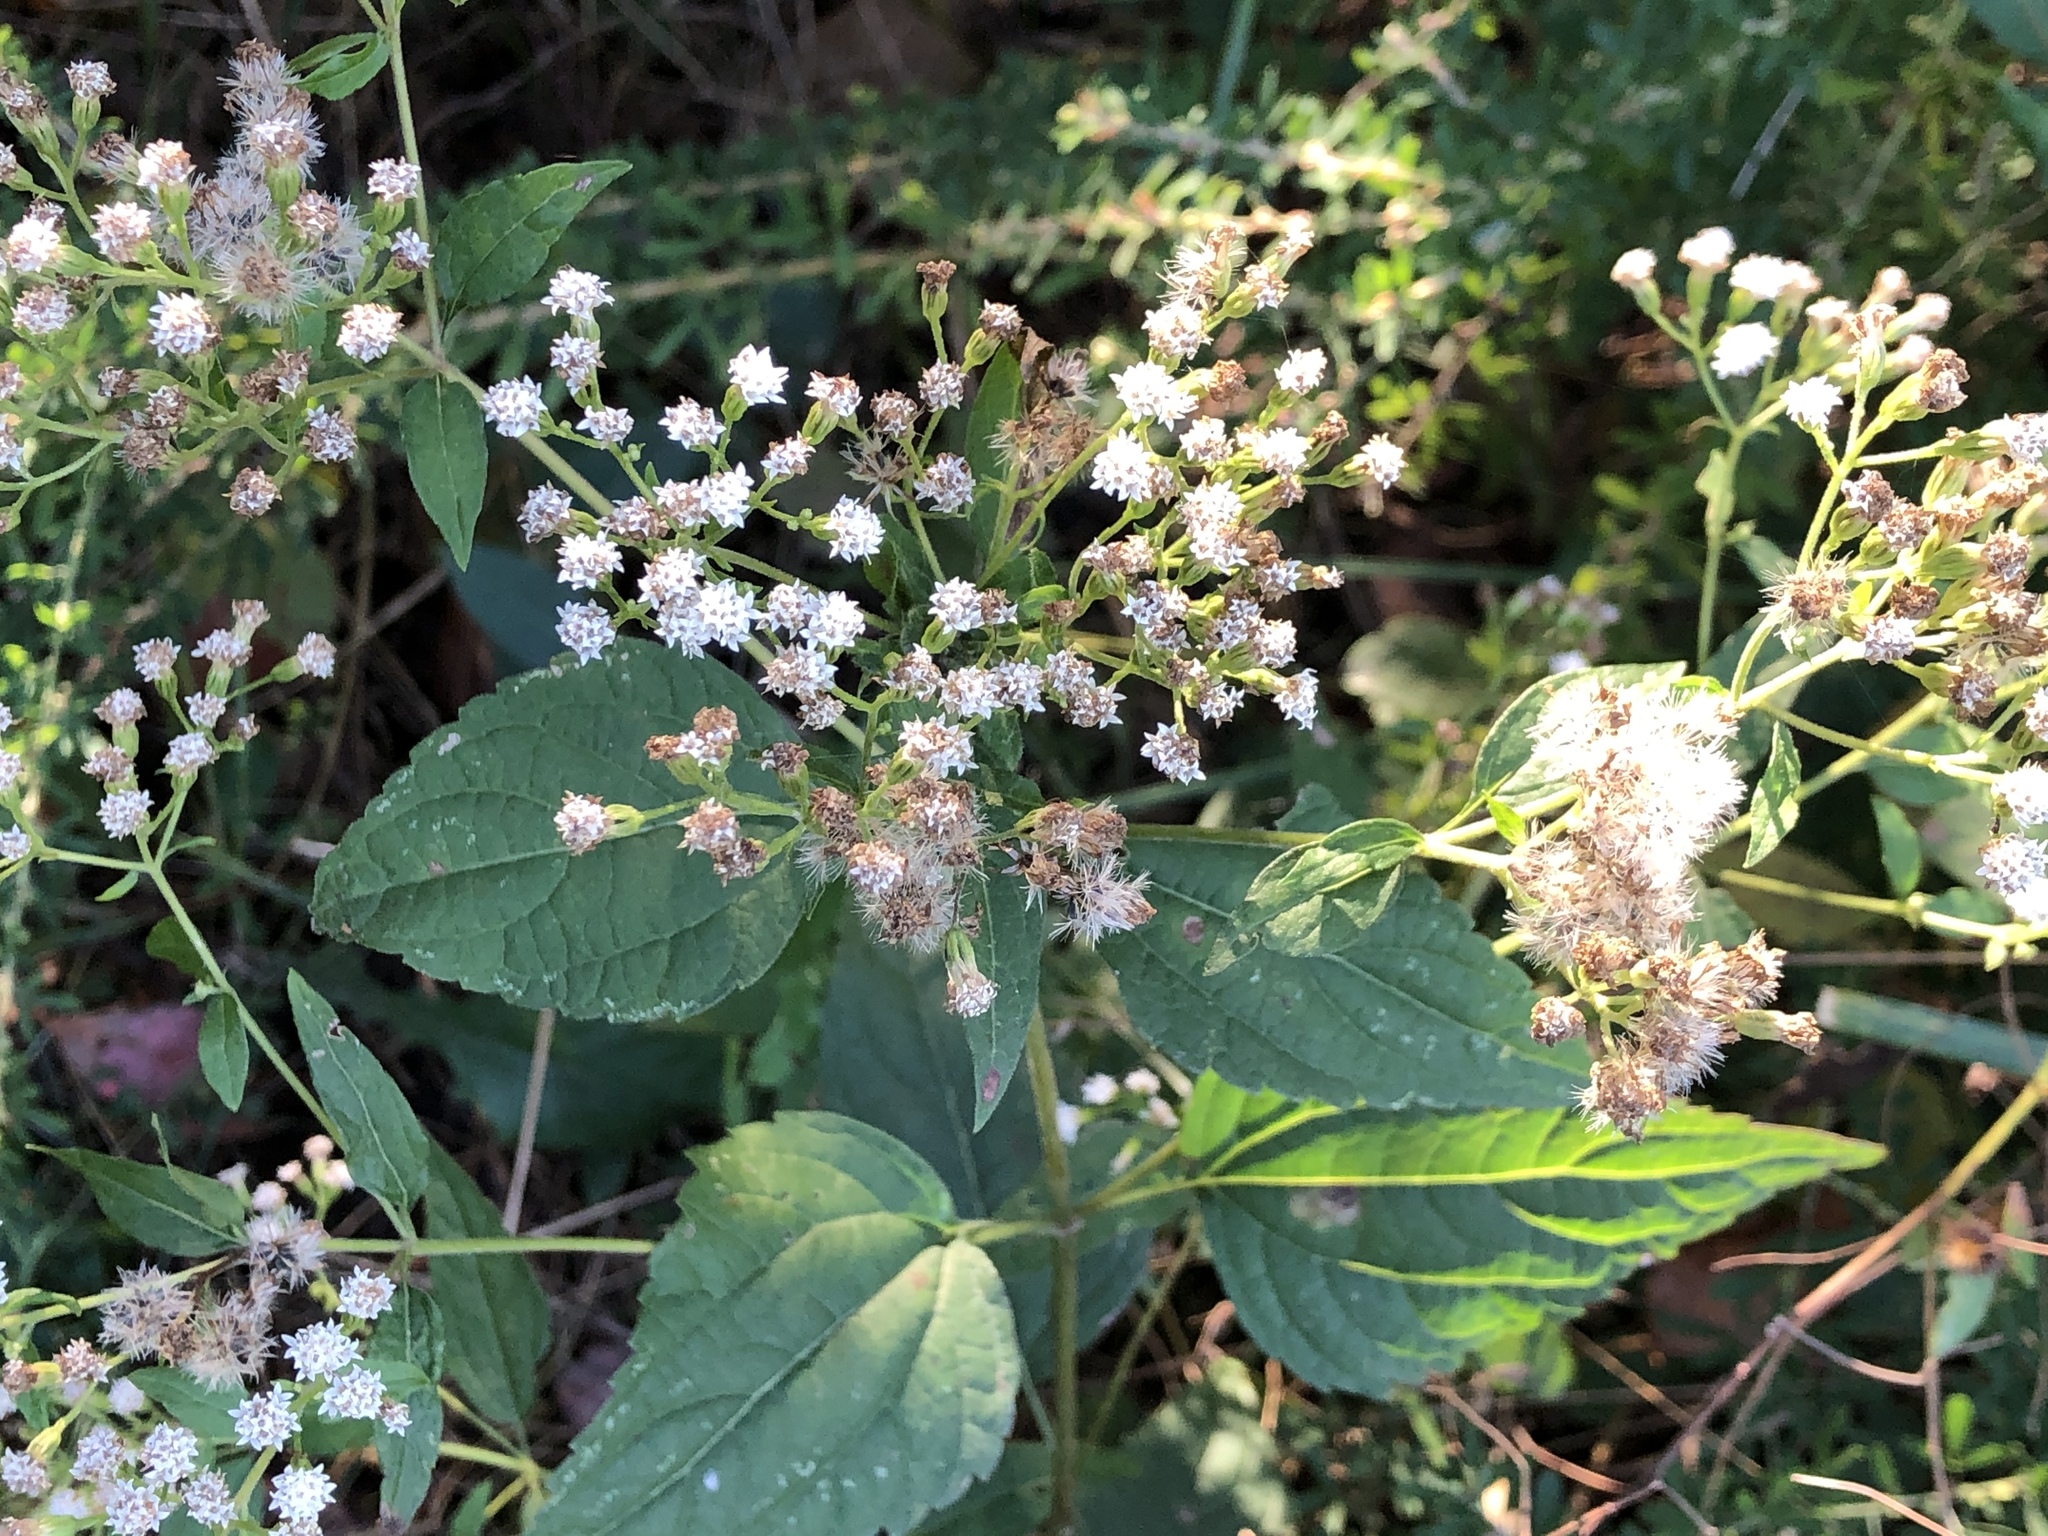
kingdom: Plantae
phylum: Tracheophyta
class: Magnoliopsida
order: Asterales
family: Asteraceae
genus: Ageratina
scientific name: Ageratina altissima
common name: White snakeroot
